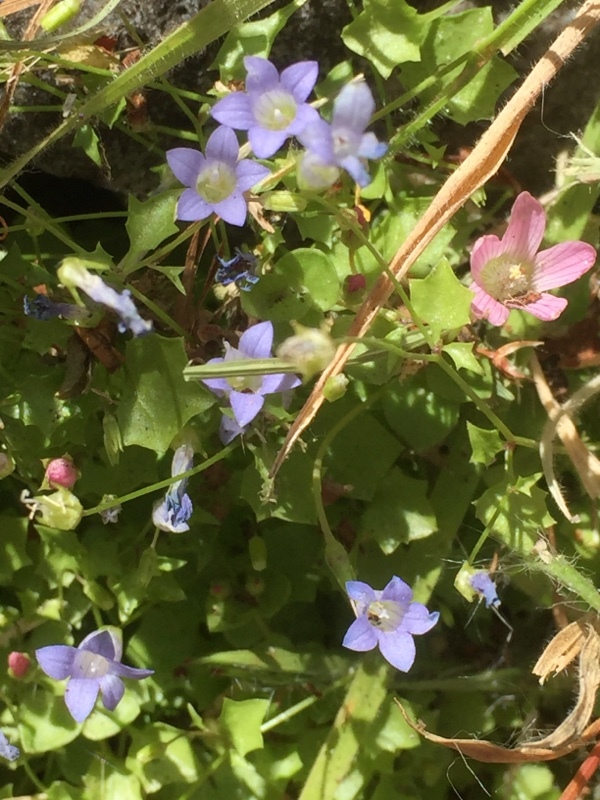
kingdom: Plantae
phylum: Tracheophyta
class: Magnoliopsida
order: Asterales
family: Campanulaceae
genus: Hesperocodon
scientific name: Hesperocodon hederaceus
